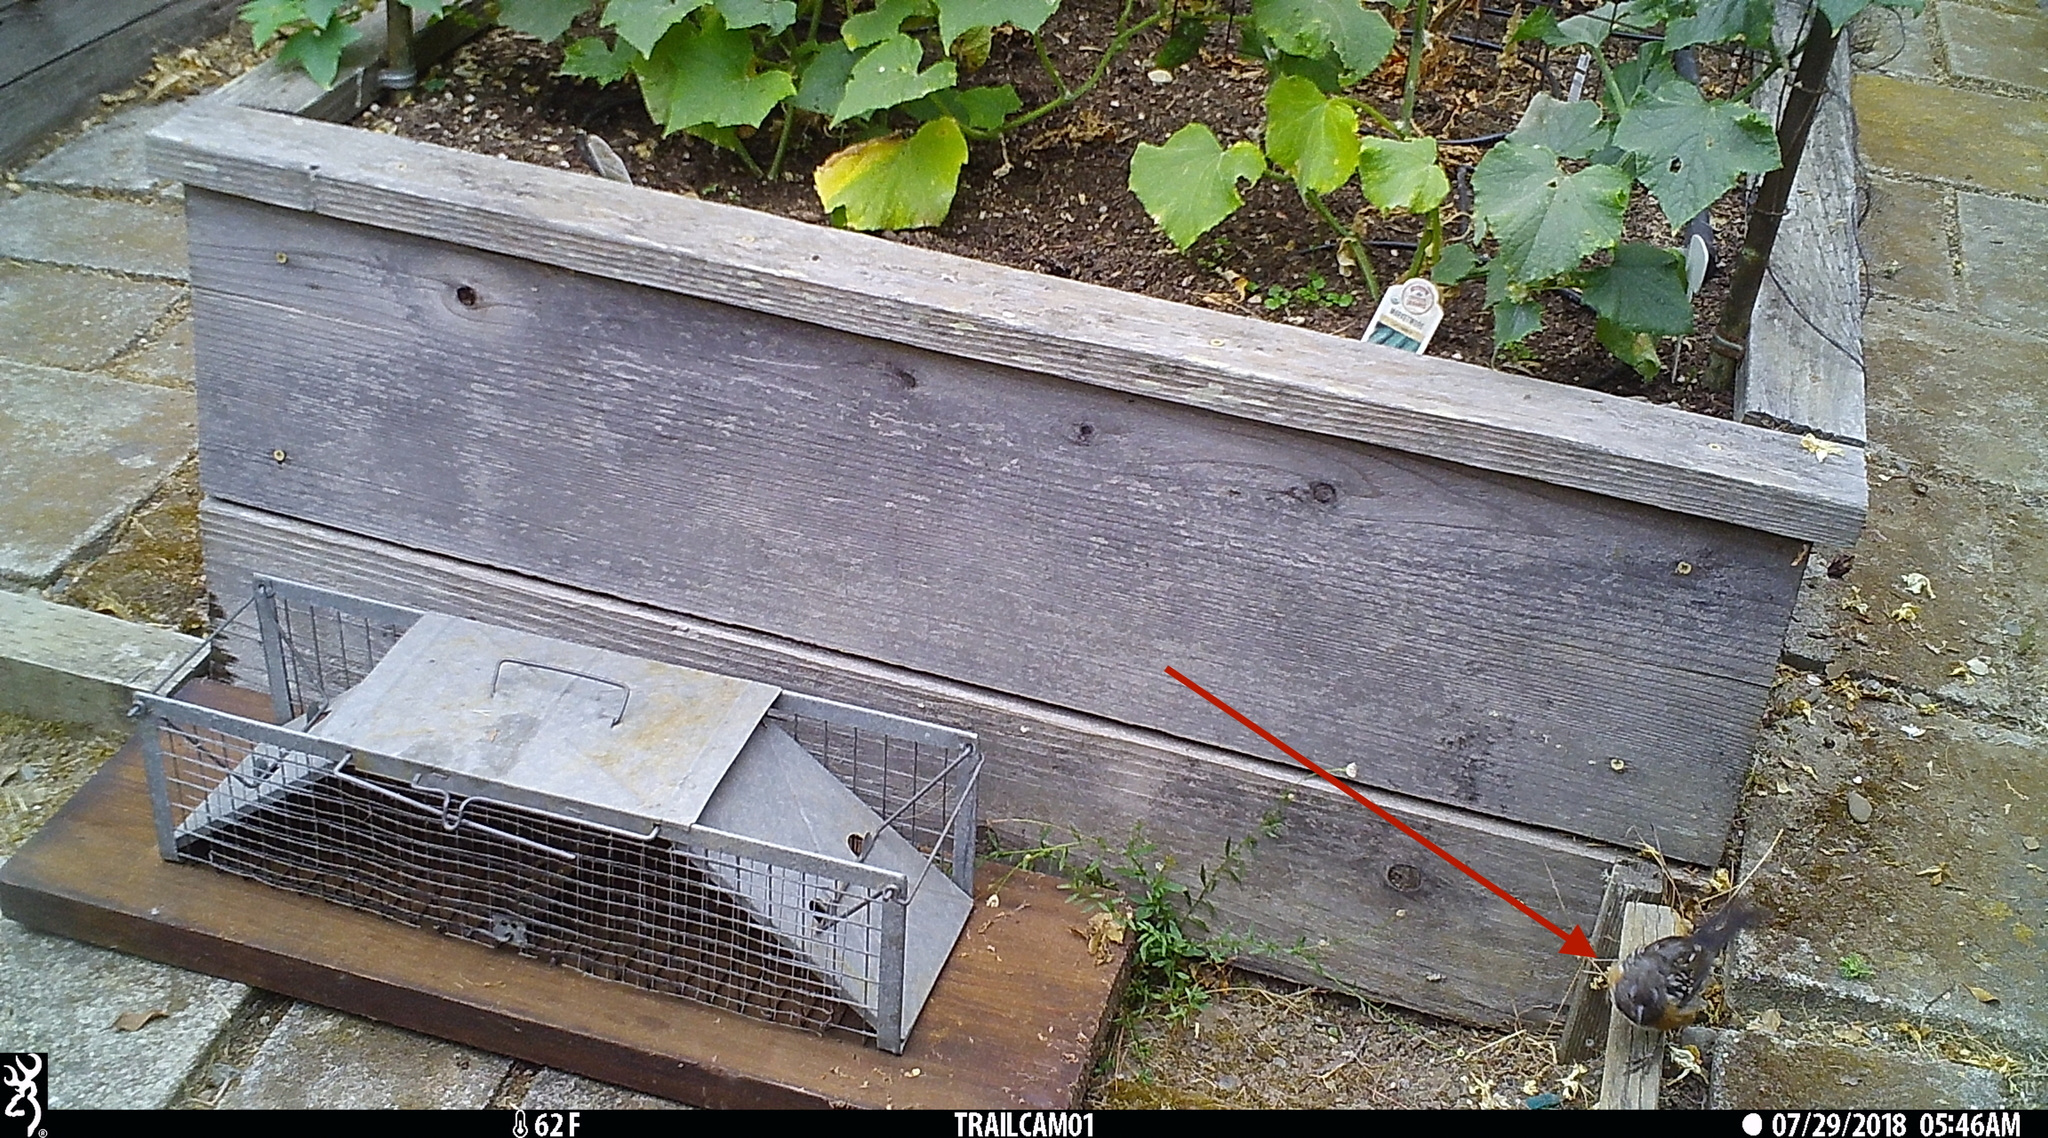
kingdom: Animalia
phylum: Chordata
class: Aves
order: Passeriformes
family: Passerellidae
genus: Pipilo
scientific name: Pipilo maculatus
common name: Spotted towhee
